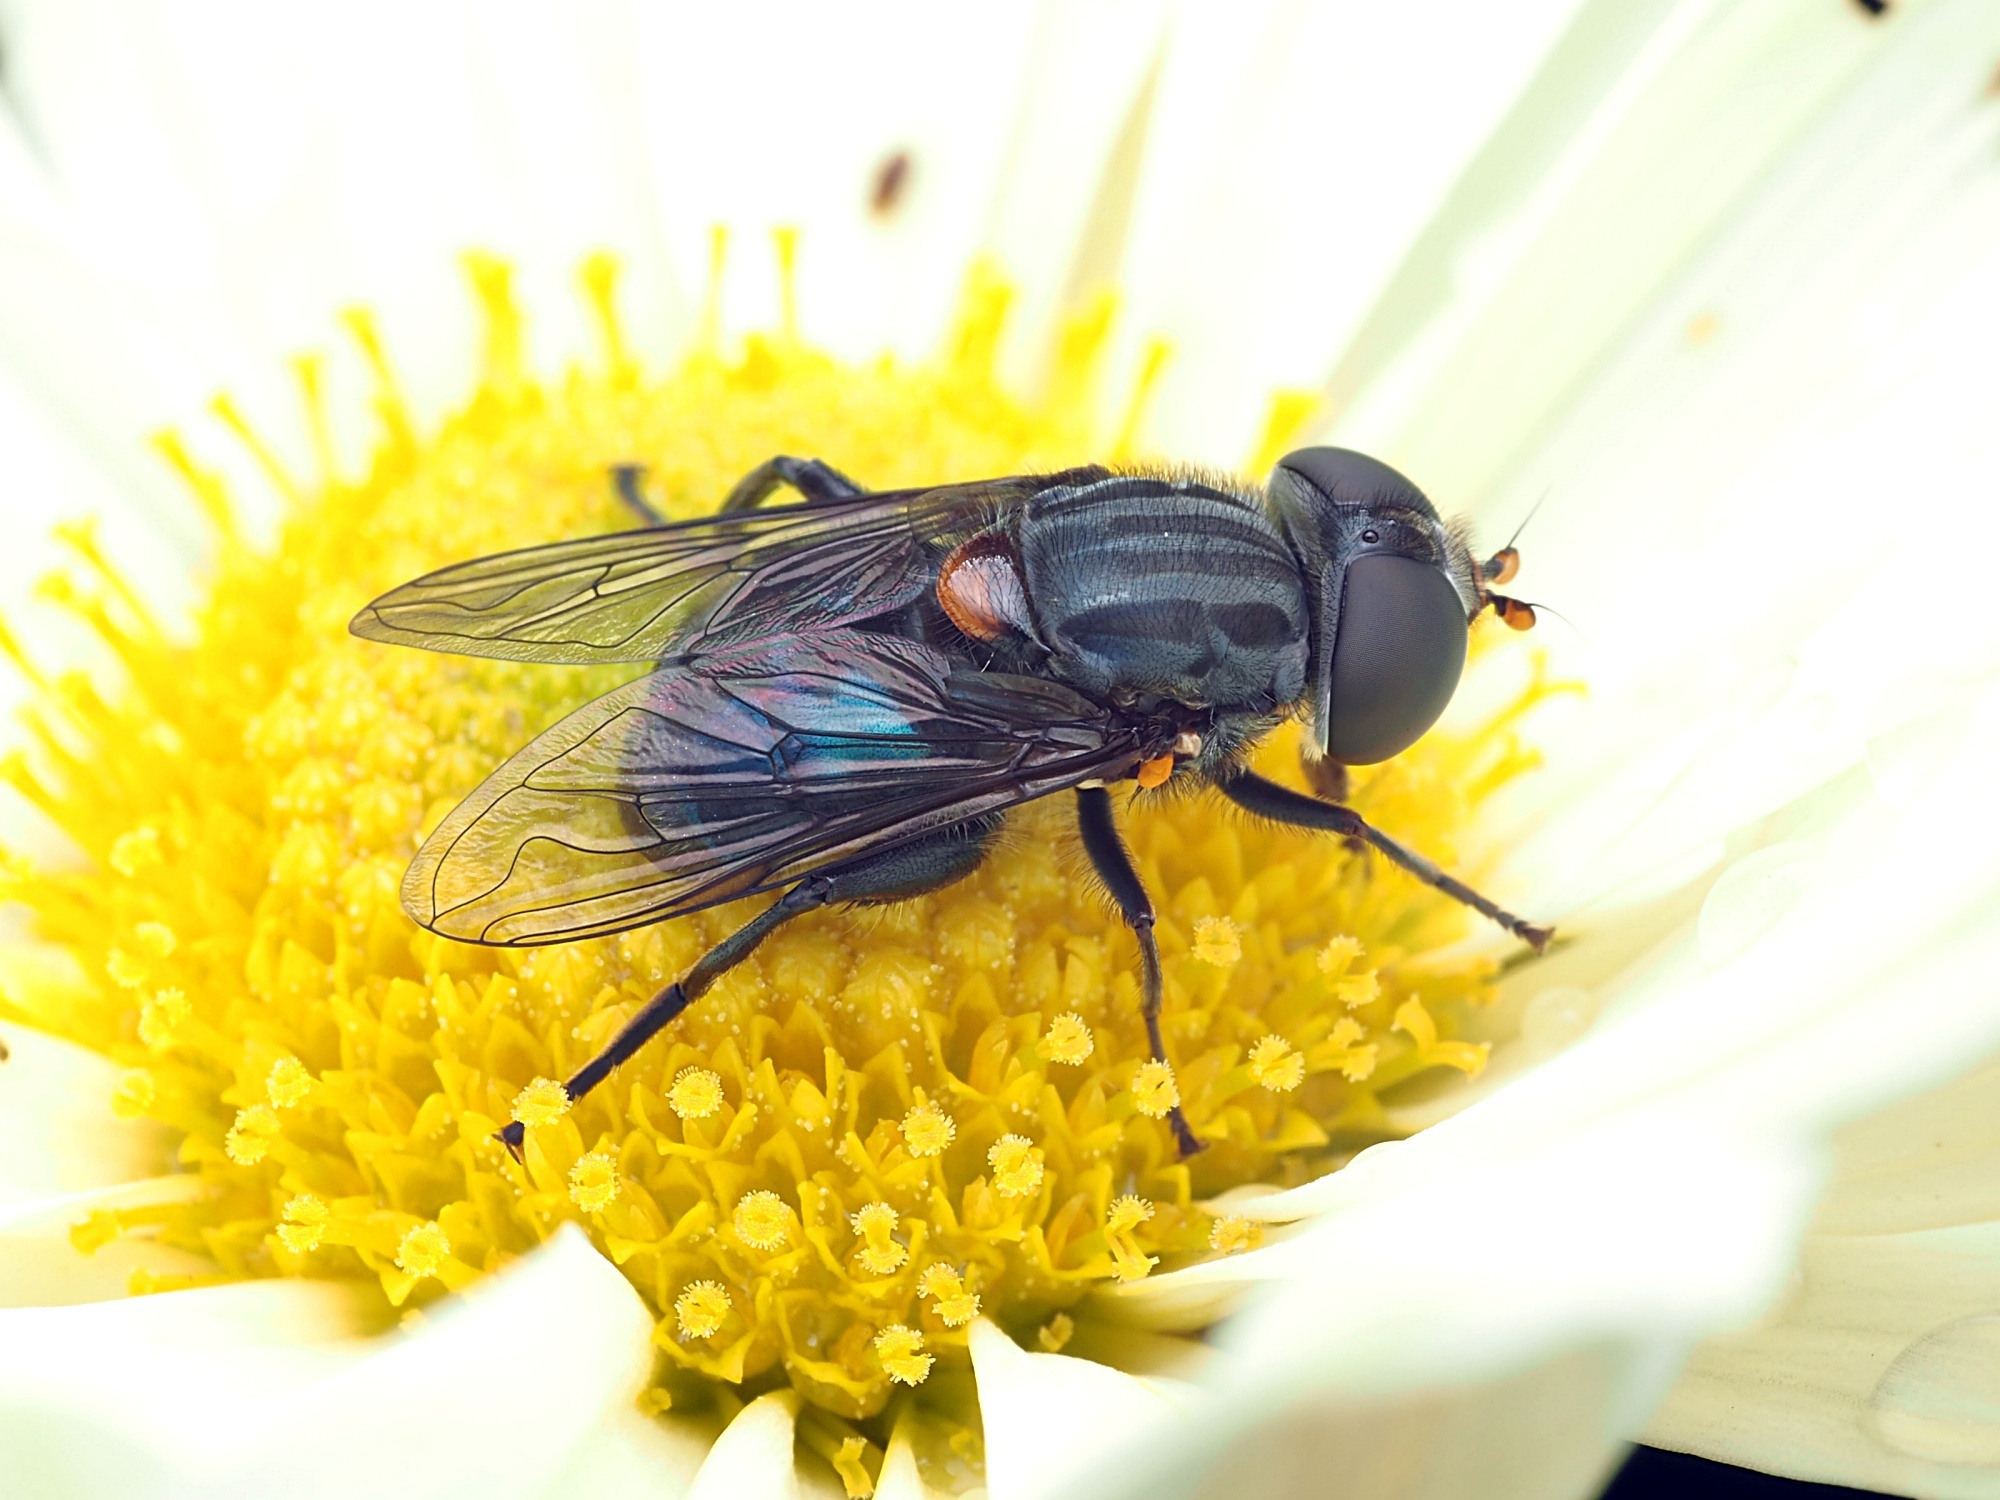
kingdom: Animalia
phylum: Arthropoda
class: Insecta
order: Diptera
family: Syrphidae
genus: Helophilus
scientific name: Helophilus hochstetteri
